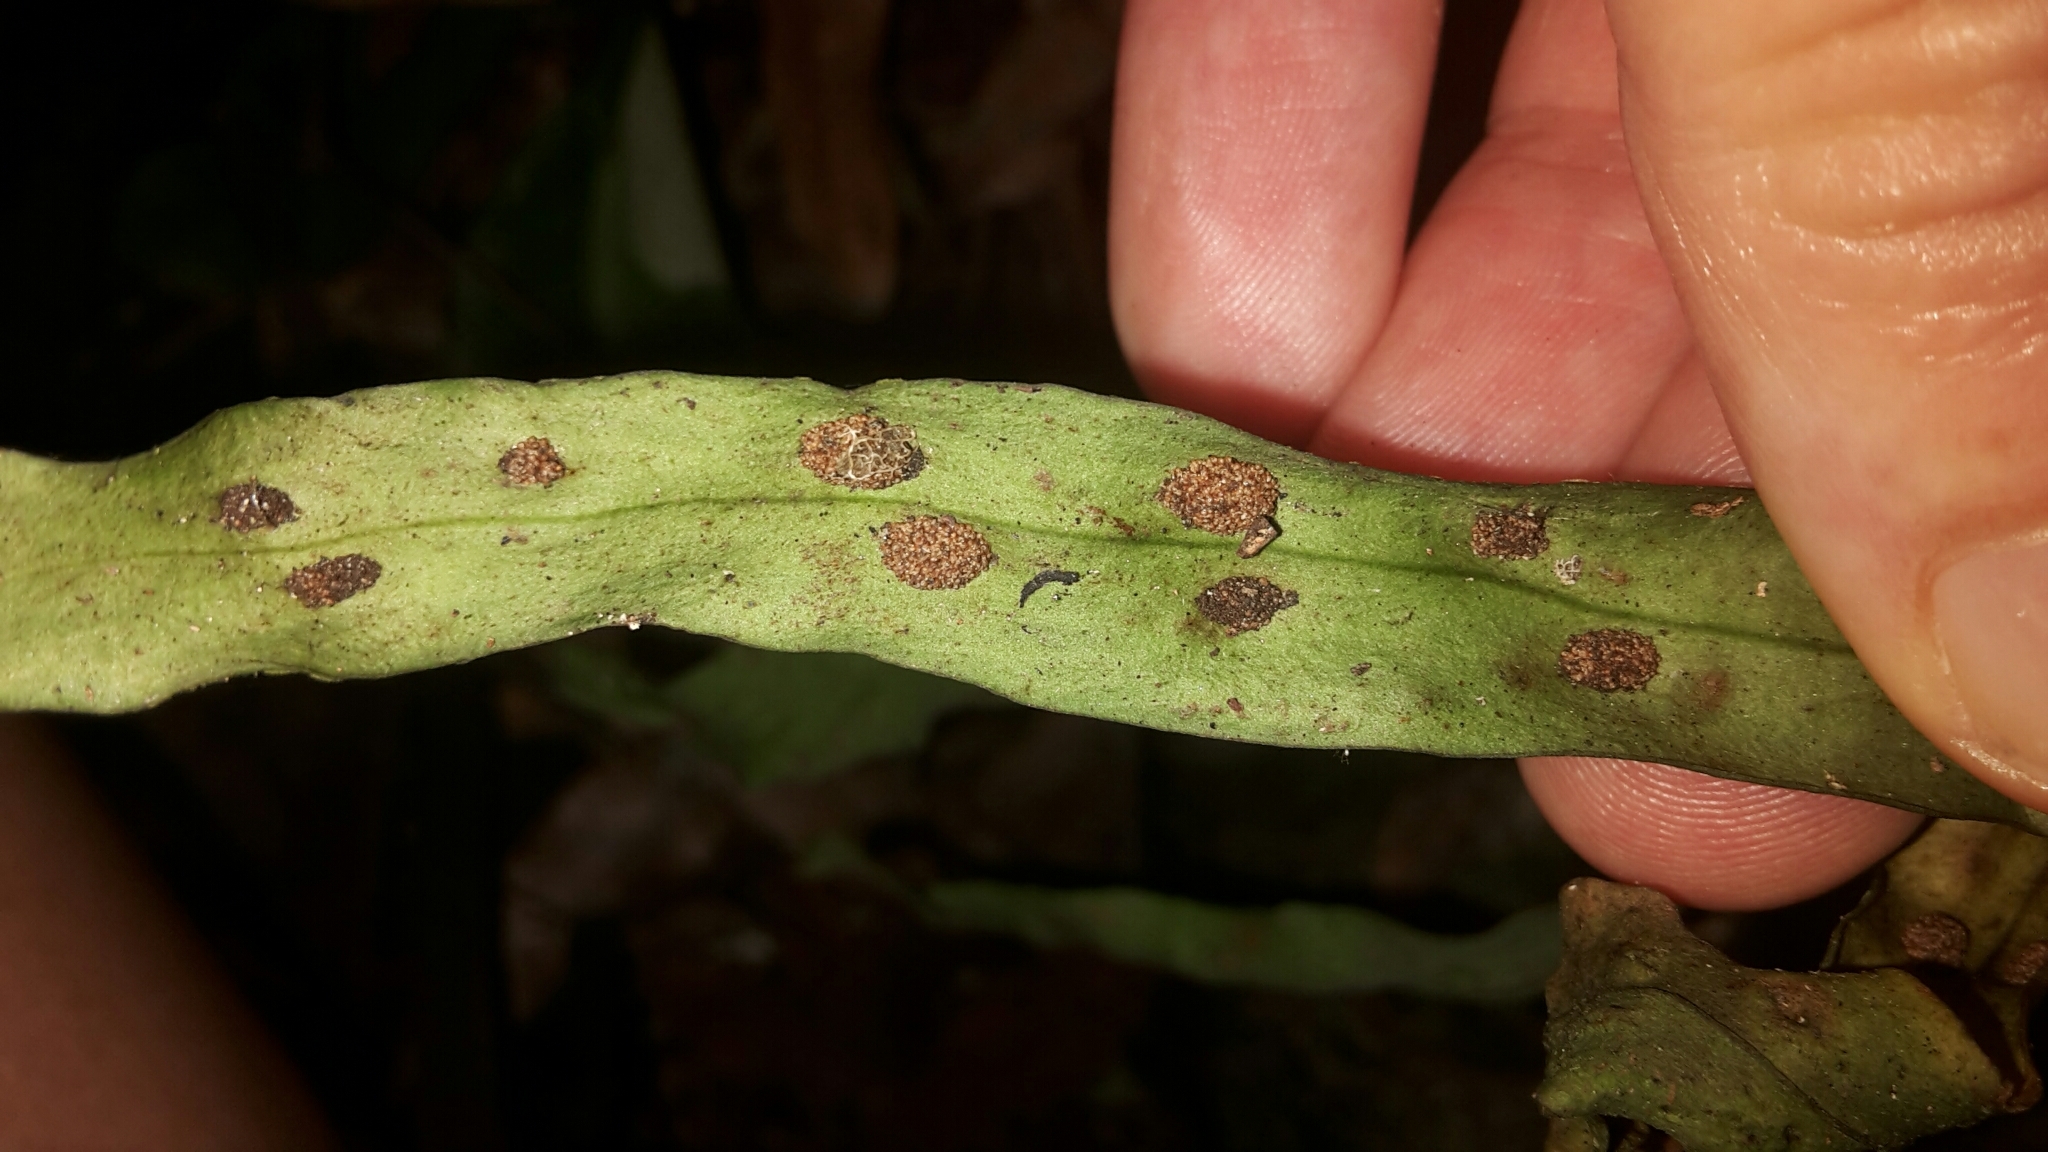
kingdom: Plantae
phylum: Tracheophyta
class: Polypodiopsida
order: Polypodiales
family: Polypodiaceae
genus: Loxogramme
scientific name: Loxogramme dictyopteris
